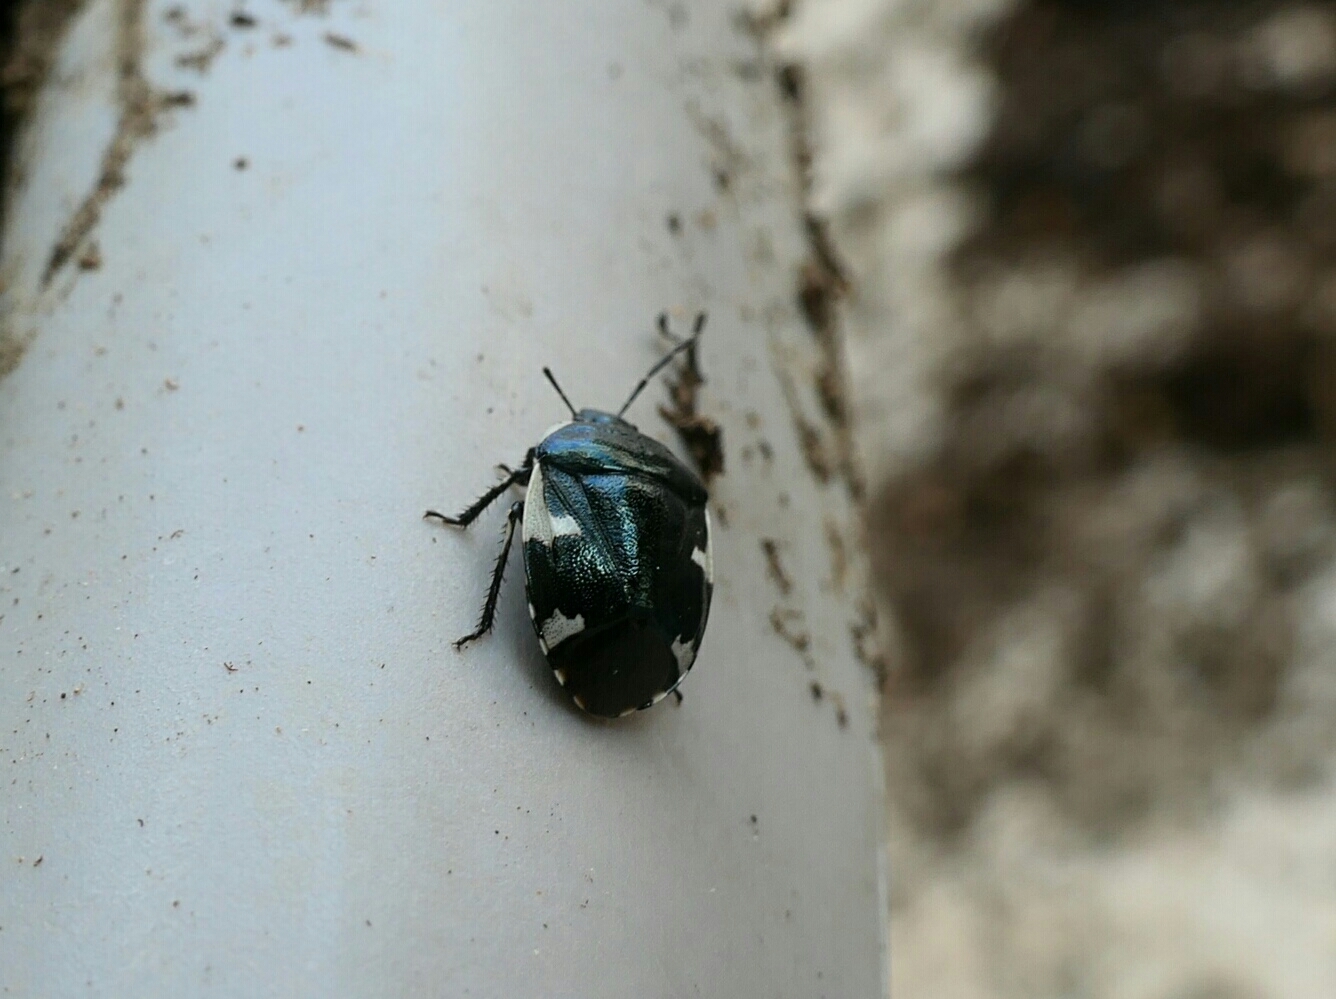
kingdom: Animalia
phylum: Arthropoda
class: Insecta
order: Hemiptera
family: Cydnidae
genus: Tritomegas
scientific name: Tritomegas sexmaculatus
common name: Rambur's pied shieldbug
